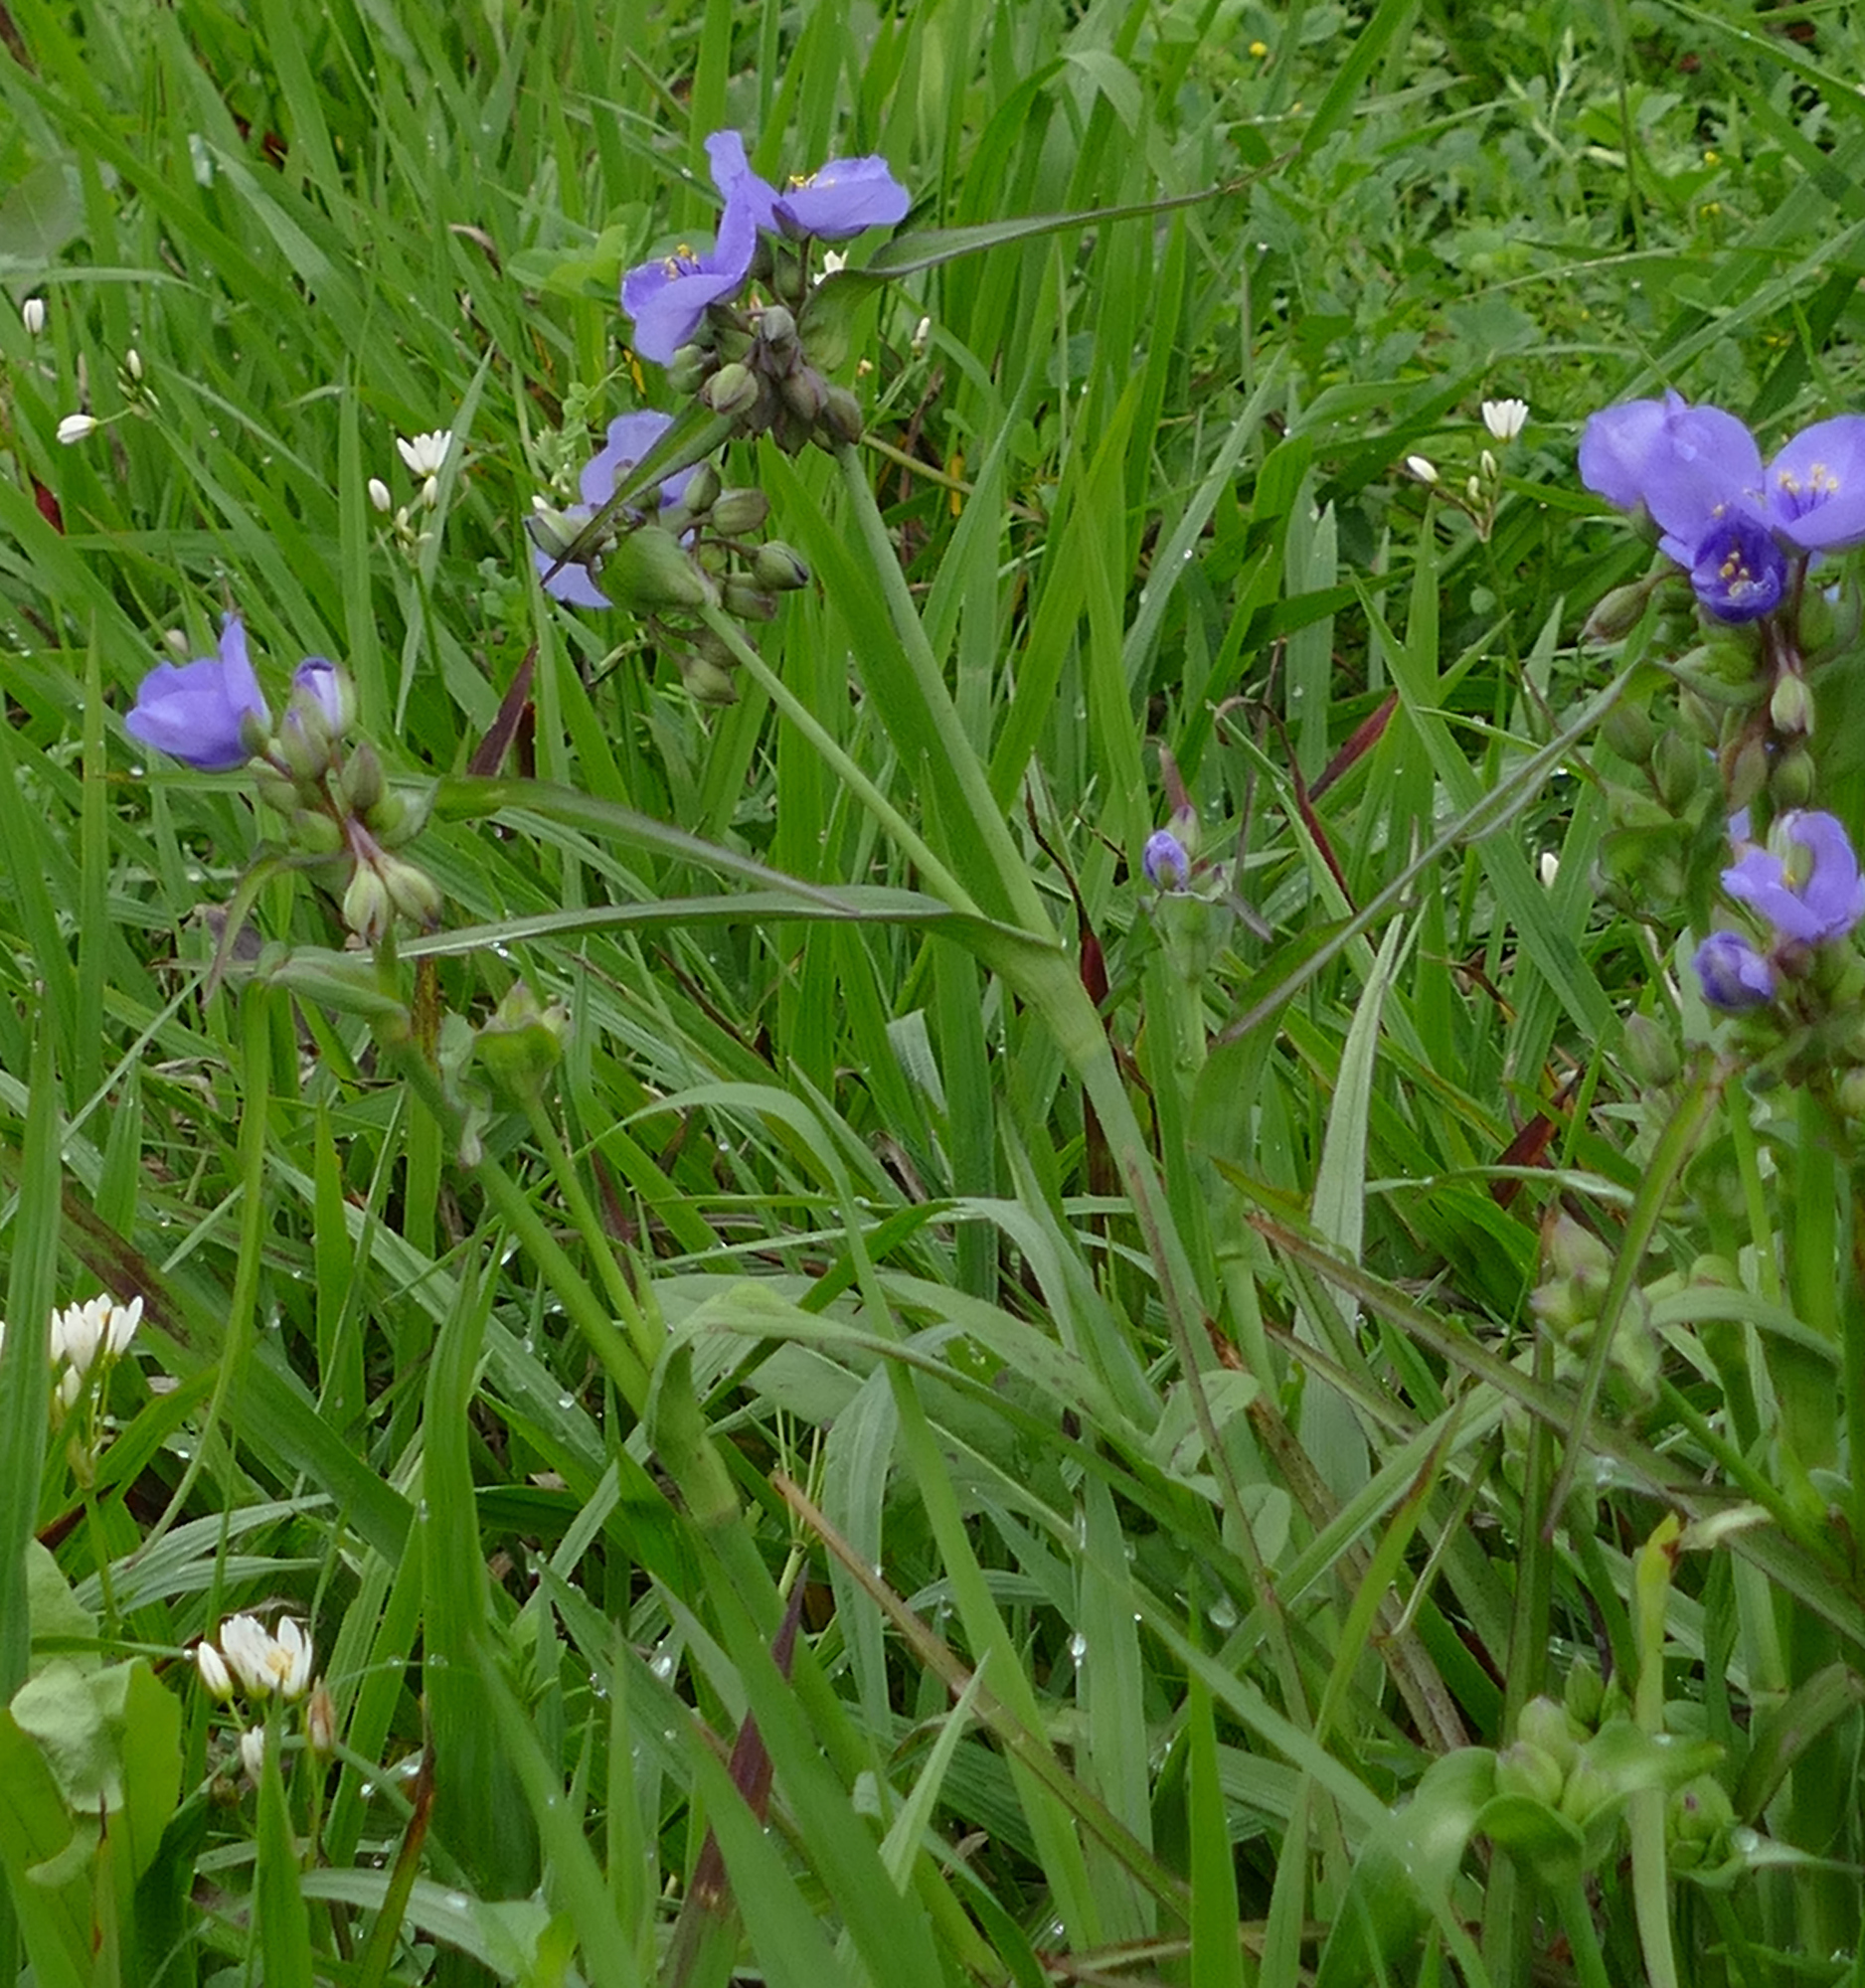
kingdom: Plantae
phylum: Tracheophyta
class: Liliopsida
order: Commelinales
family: Commelinaceae
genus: Tradescantia
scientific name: Tradescantia ohiensis
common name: Ohio spiderwort
